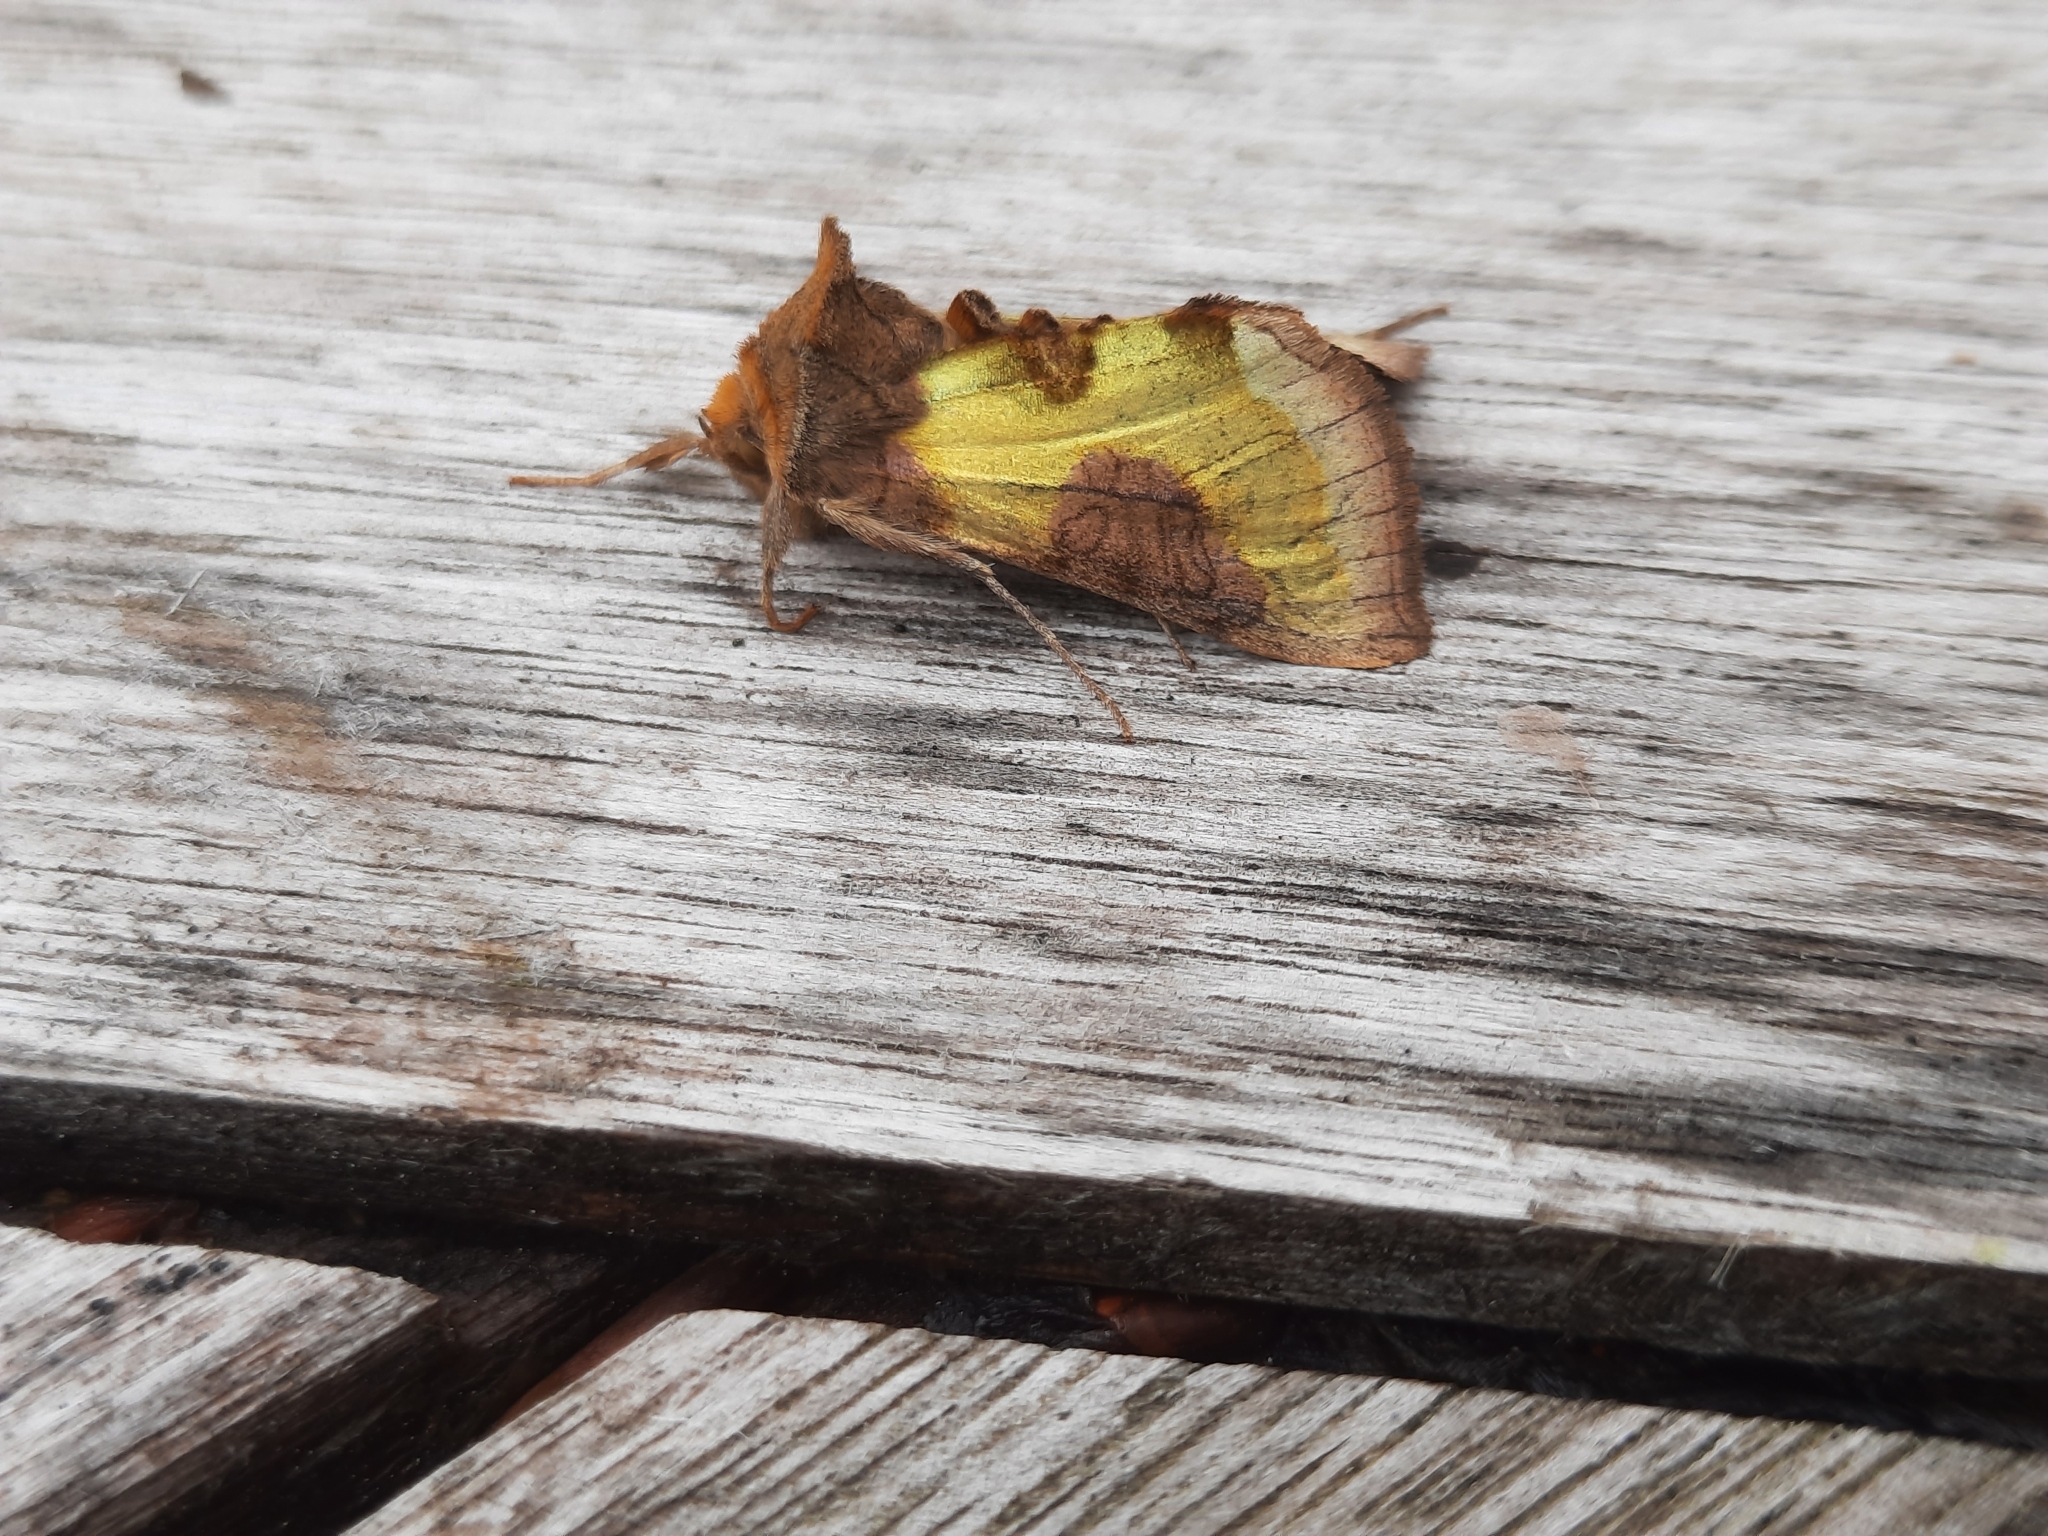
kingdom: Animalia
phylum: Arthropoda
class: Insecta
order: Lepidoptera
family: Noctuidae
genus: Diachrysia
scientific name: Diachrysia chrysitis
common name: Burnished brass
